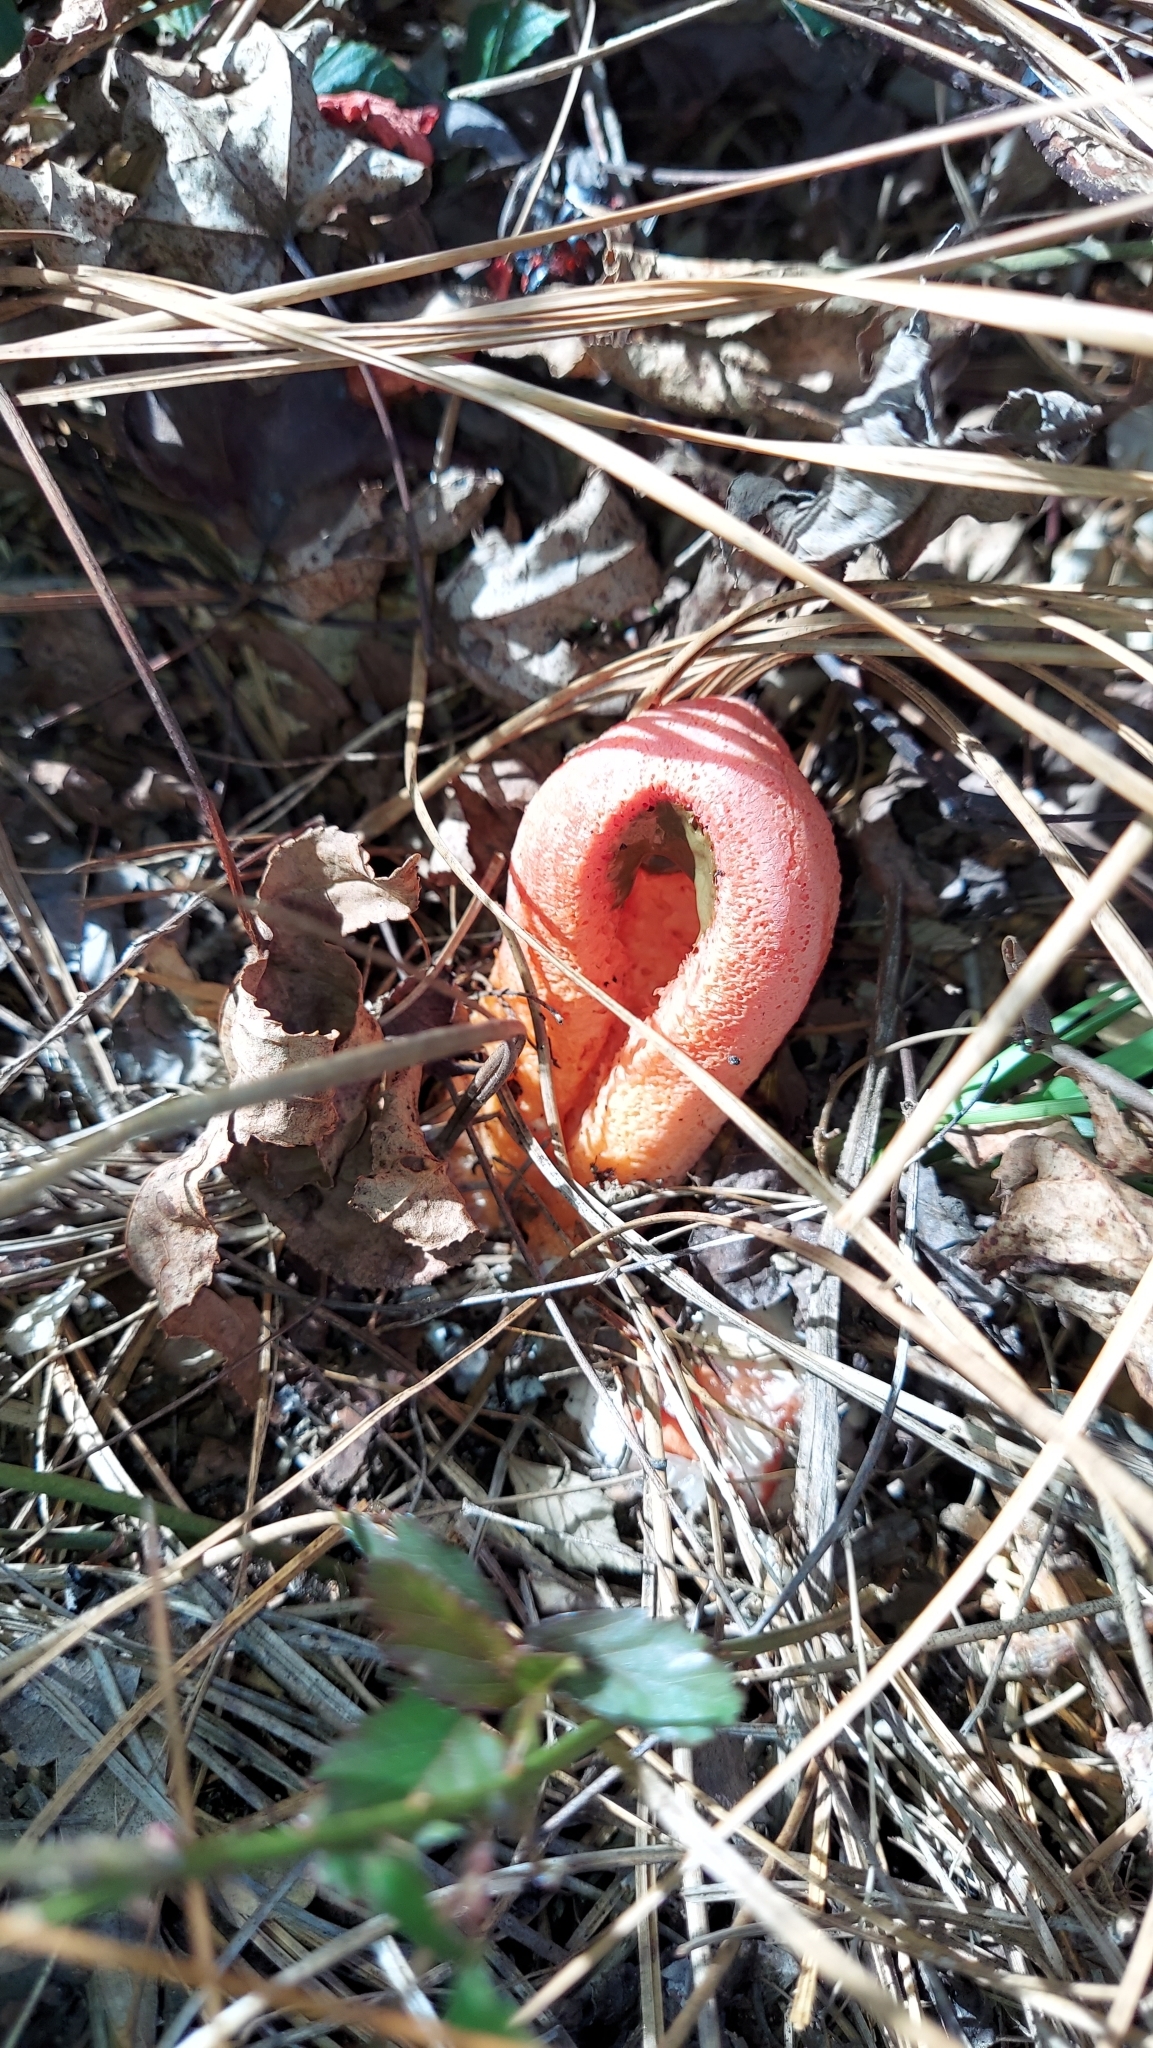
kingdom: Fungi
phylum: Basidiomycota
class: Agaricomycetes
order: Phallales
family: Phallaceae
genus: Clathrus
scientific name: Clathrus columnatus
